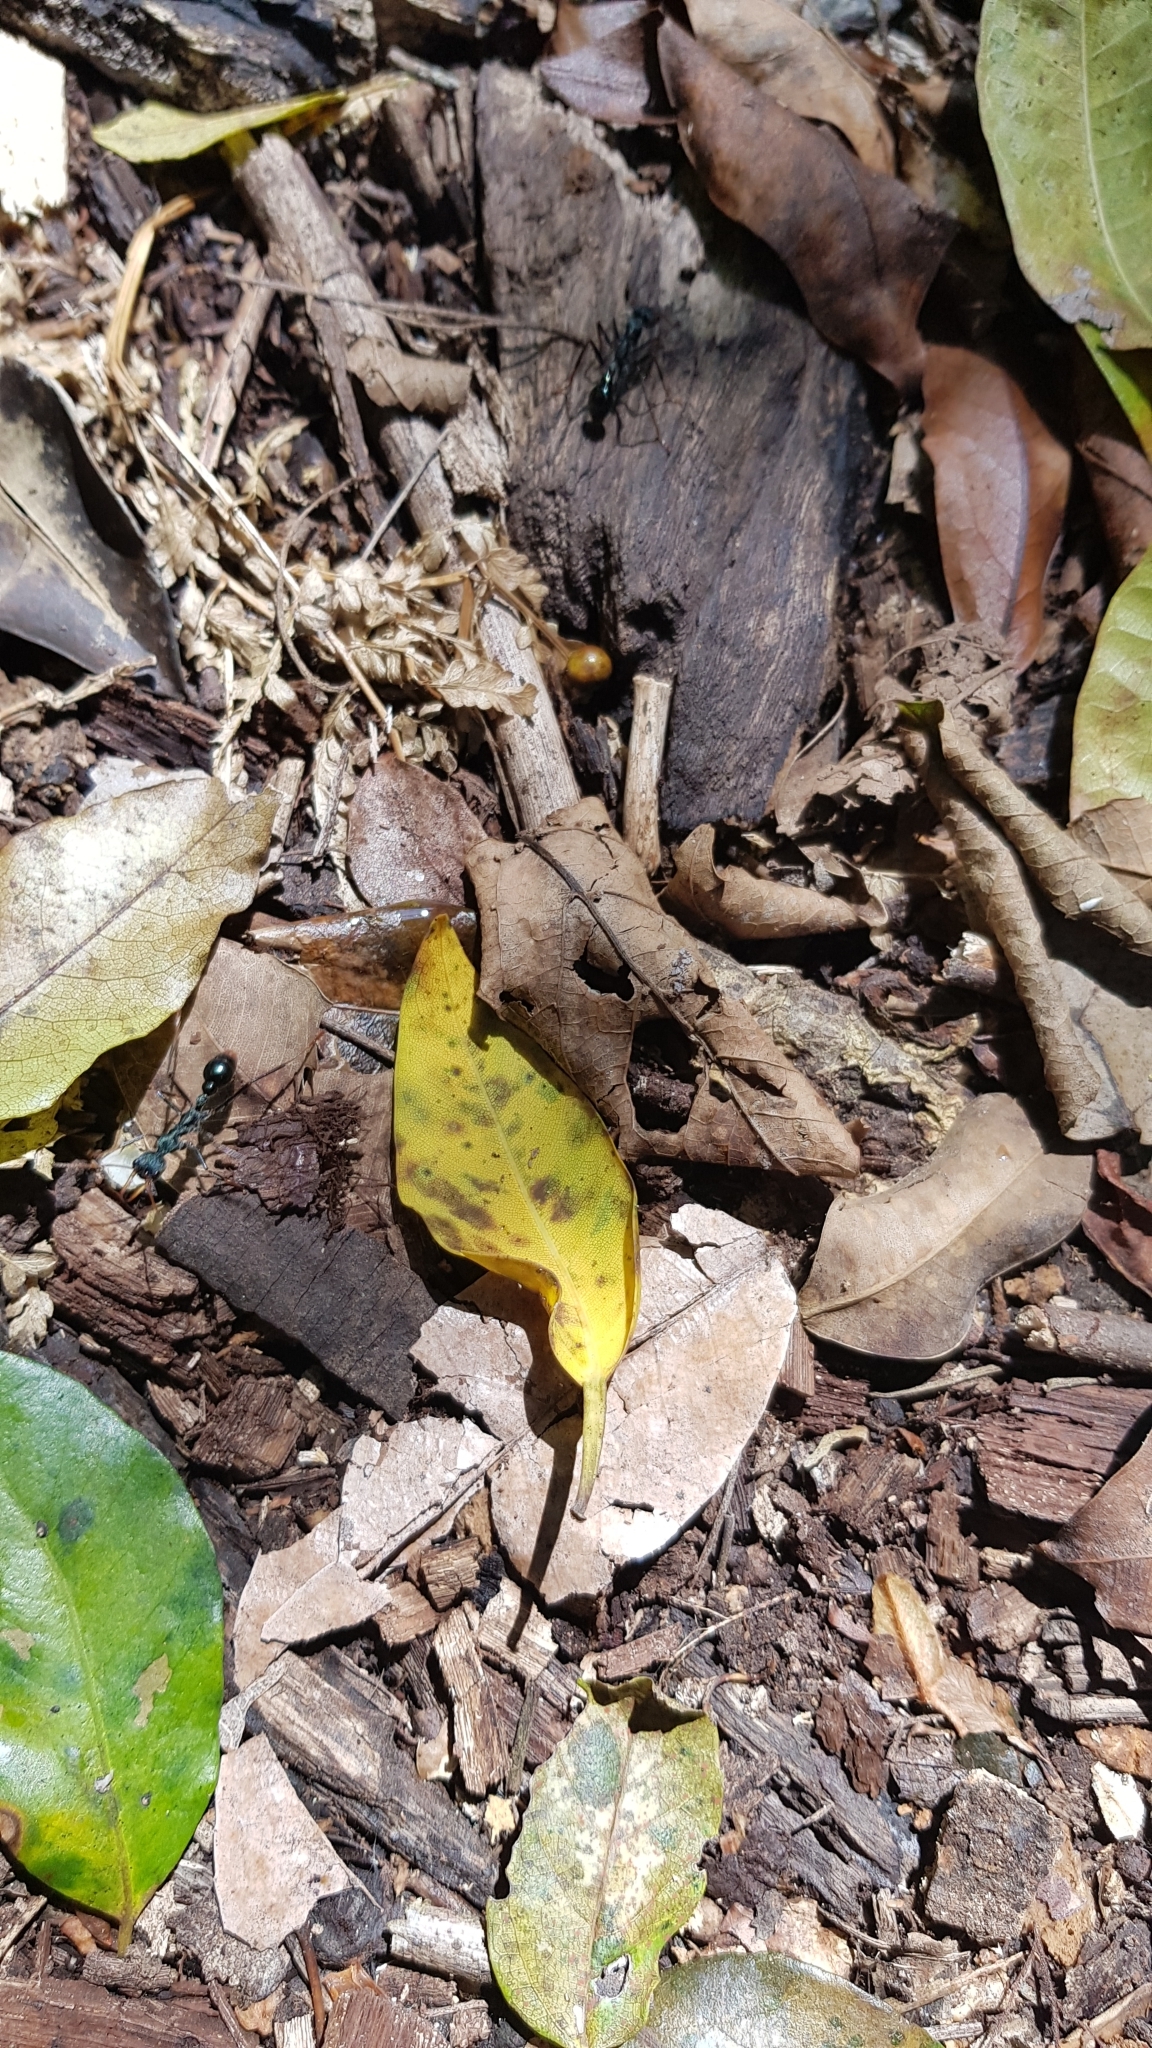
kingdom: Animalia
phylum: Arthropoda
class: Insecta
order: Hymenoptera
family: Formicidae
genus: Myrmecia
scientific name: Myrmecia tarsata
